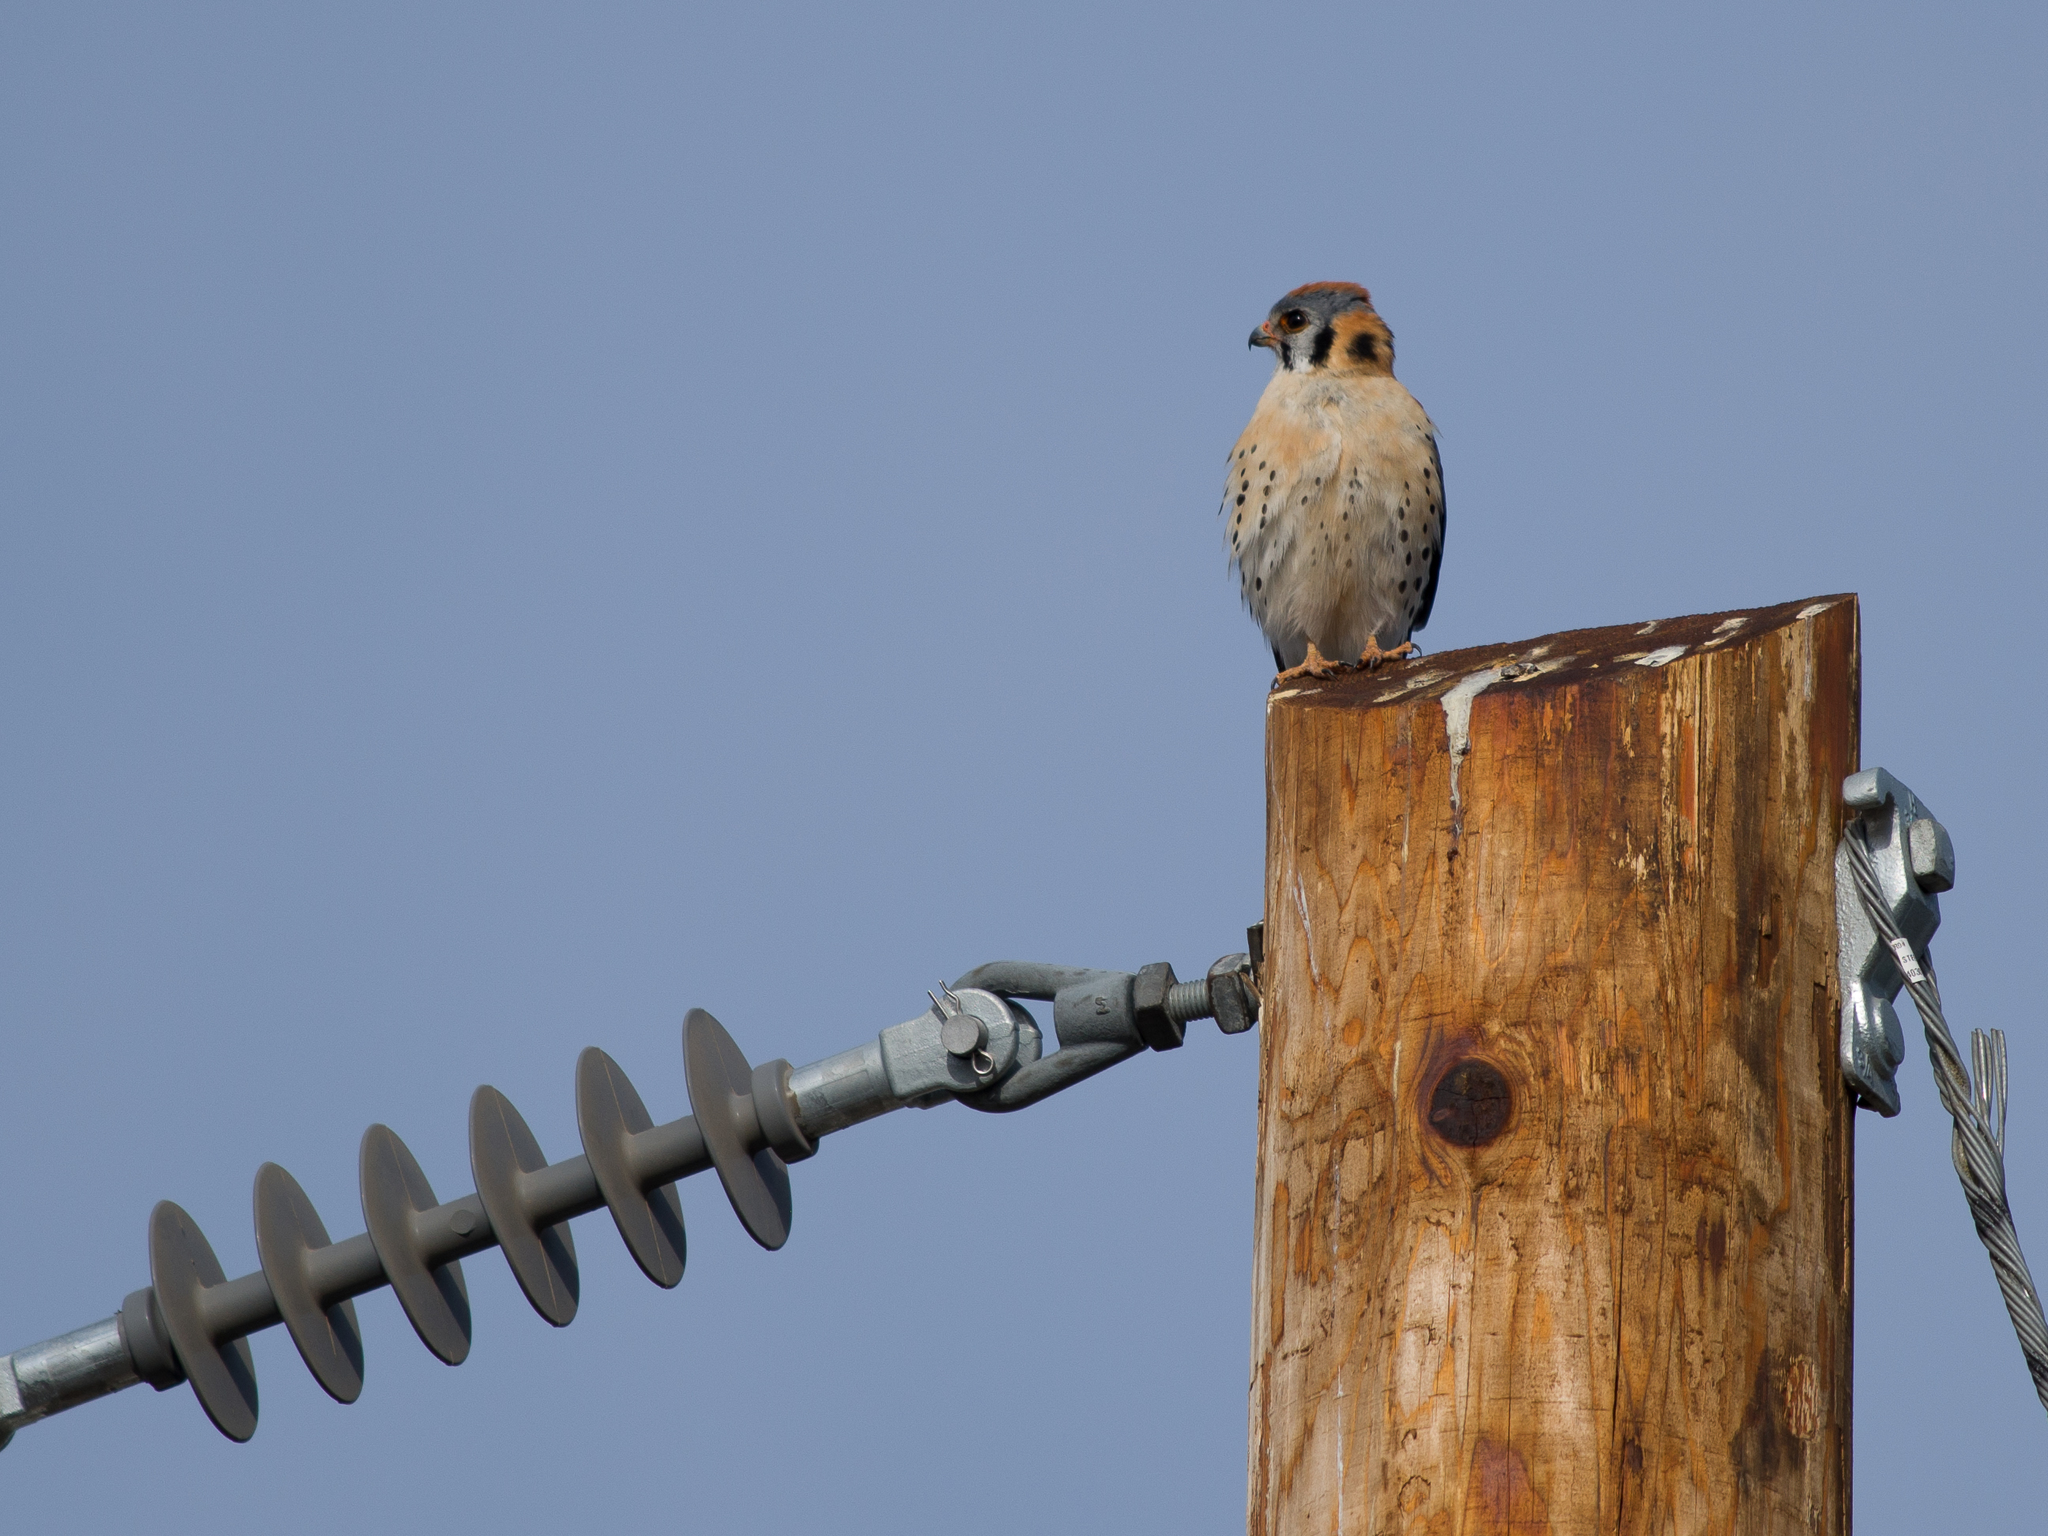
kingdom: Animalia
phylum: Chordata
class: Aves
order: Falconiformes
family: Falconidae
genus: Falco
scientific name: Falco sparverius
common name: American kestrel
